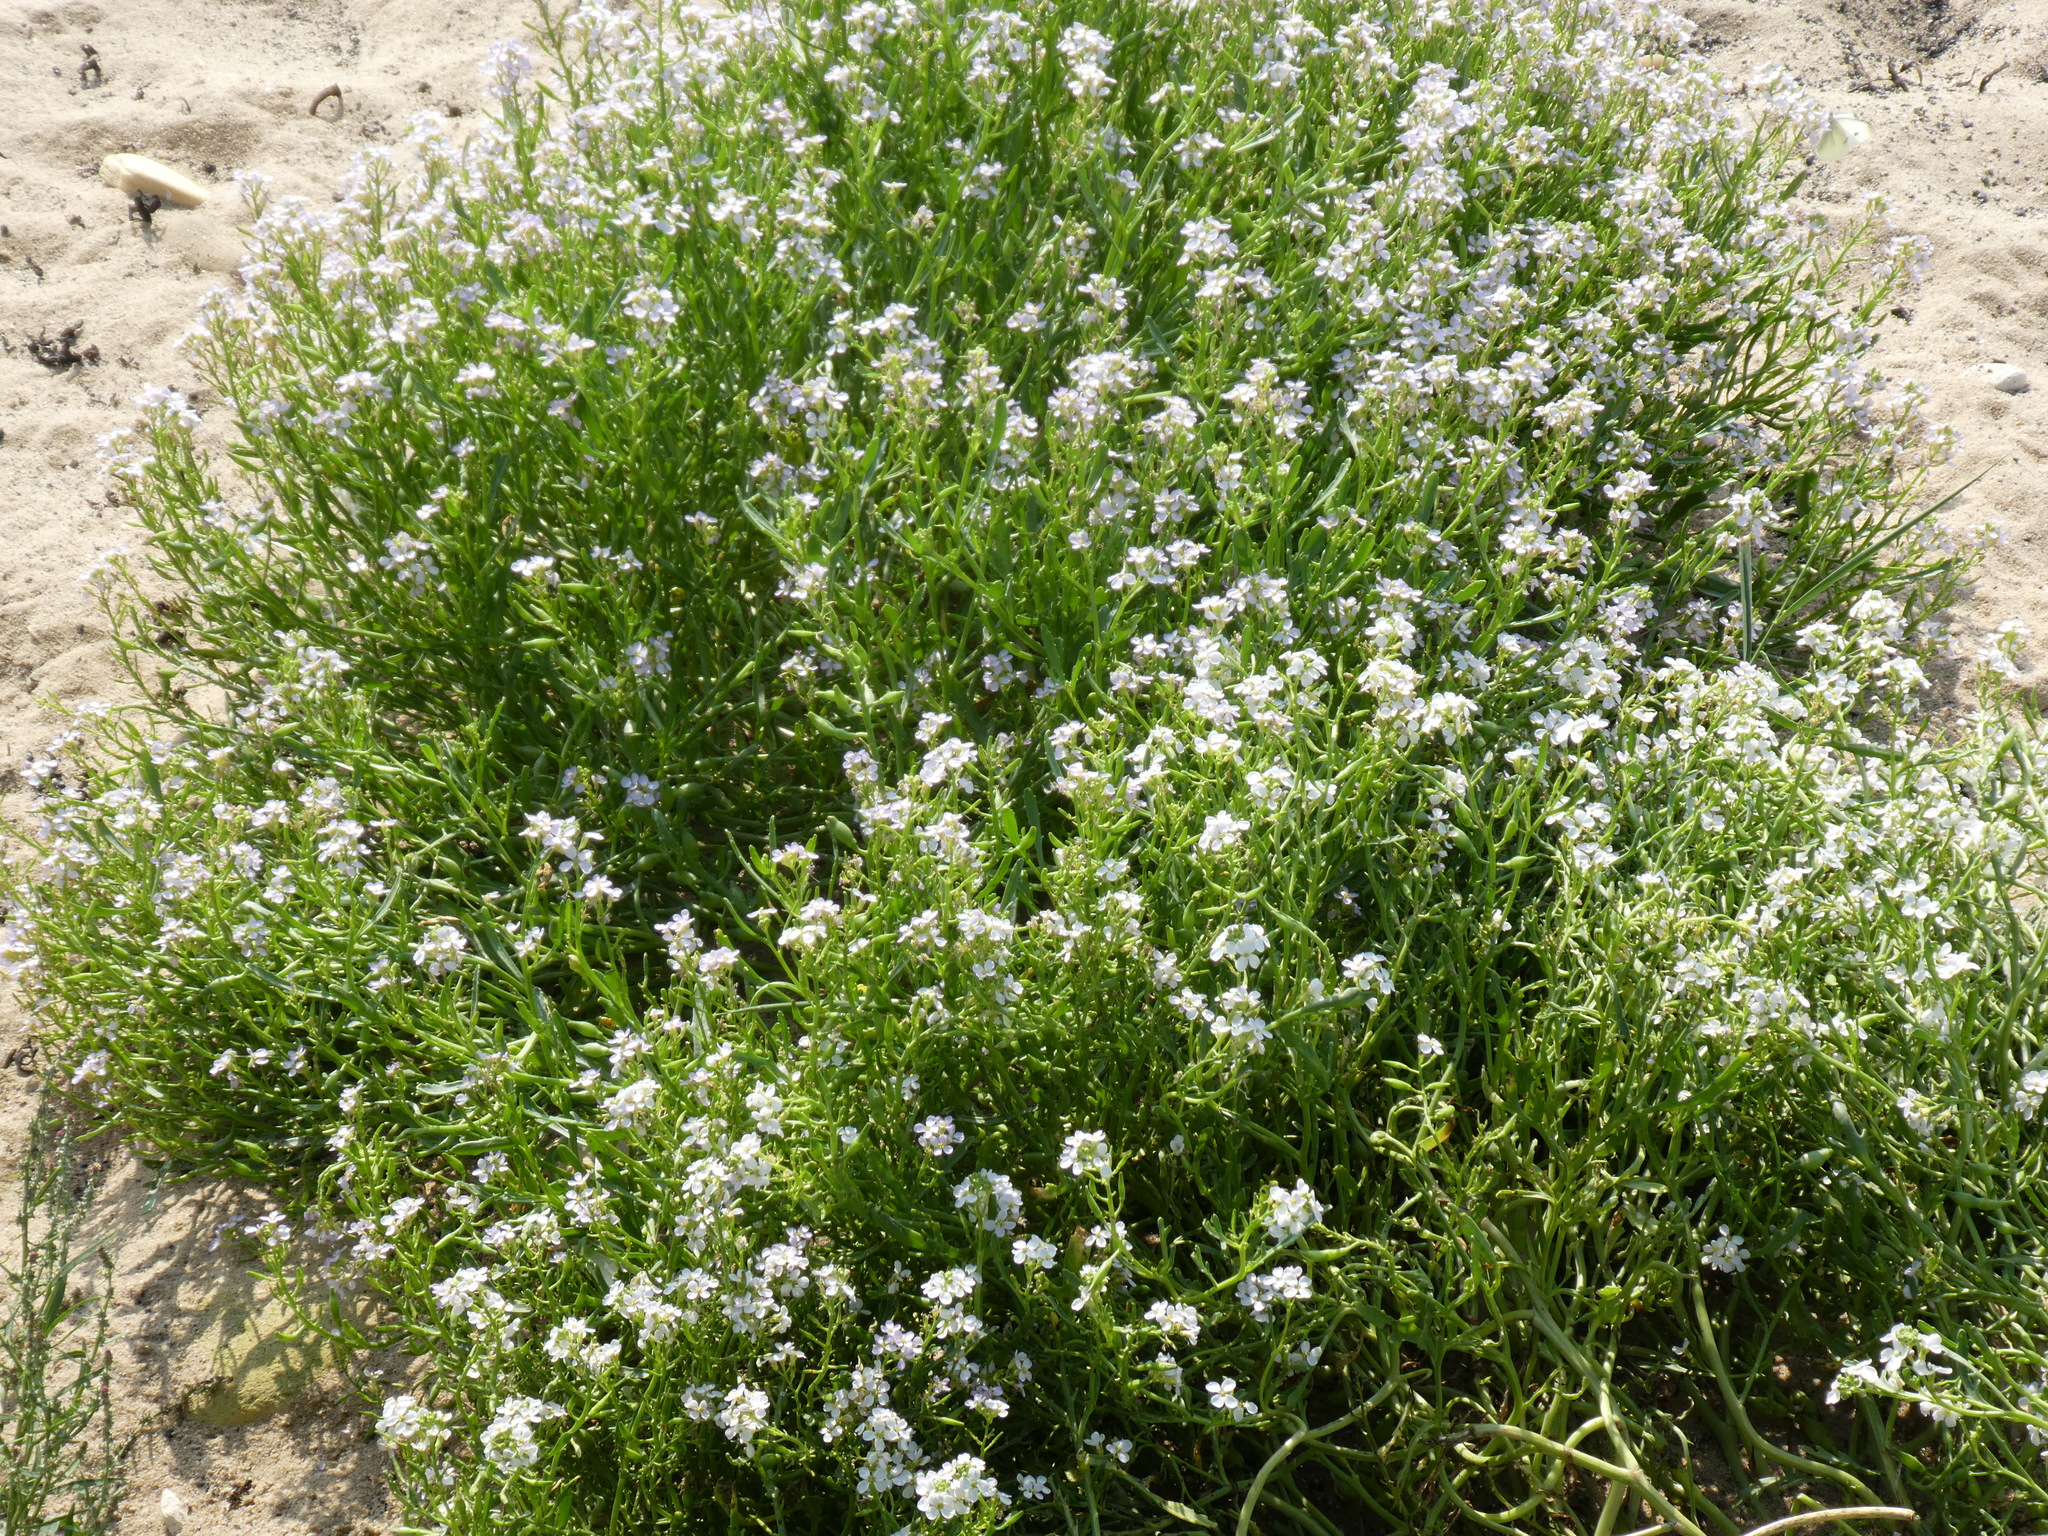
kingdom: Plantae
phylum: Tracheophyta
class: Magnoliopsida
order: Brassicales
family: Brassicaceae
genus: Cakile
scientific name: Cakile maritima
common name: Sea rocket
